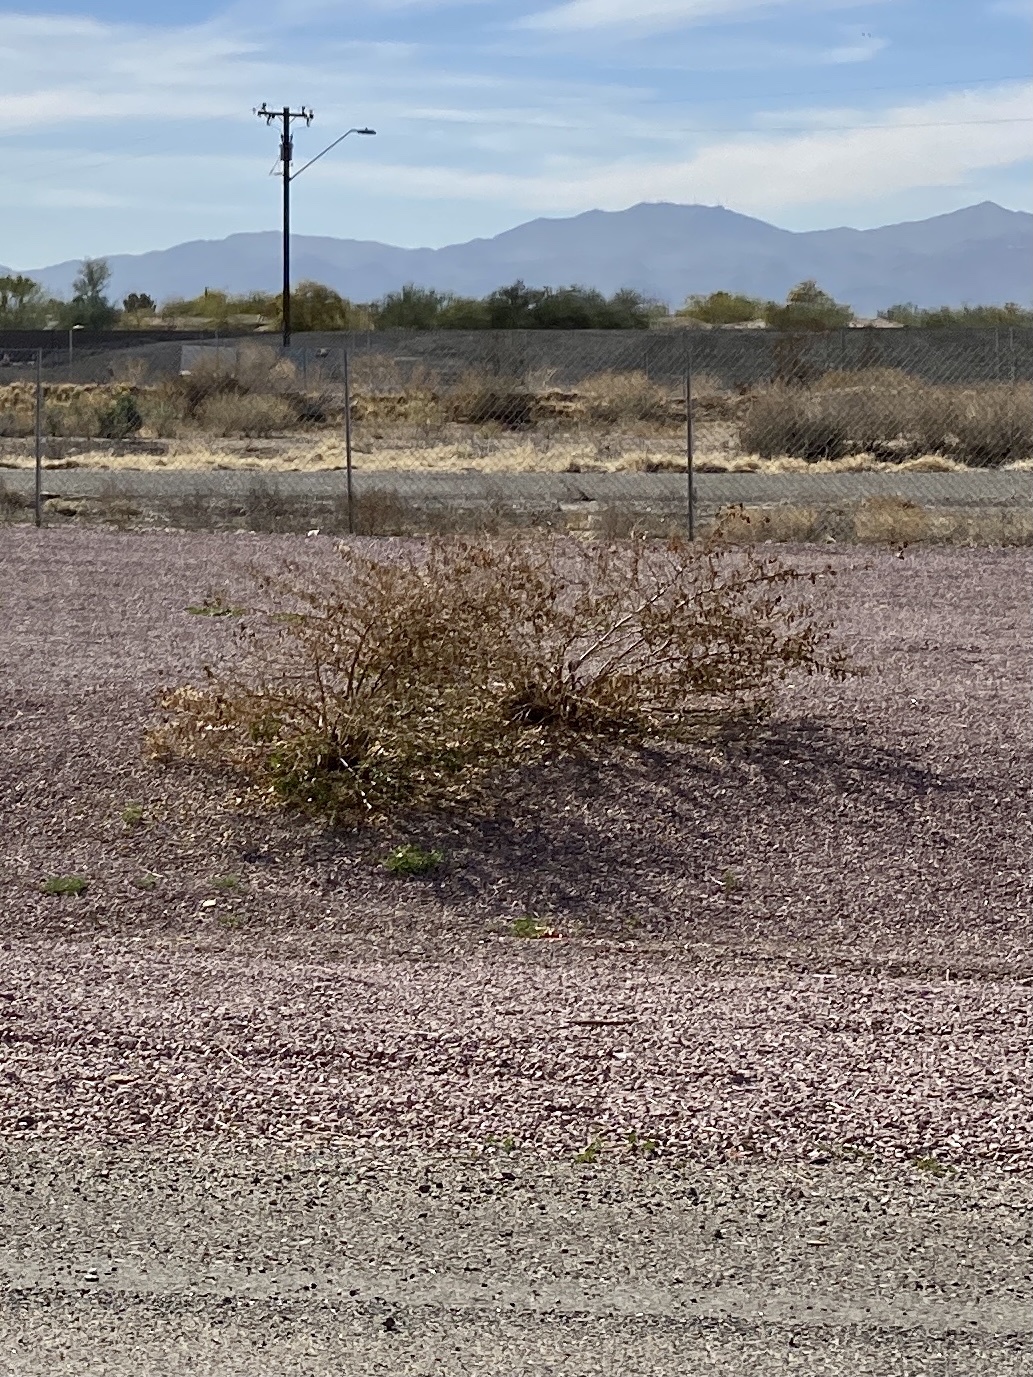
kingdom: Plantae
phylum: Tracheophyta
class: Magnoliopsida
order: Zygophyllales
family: Zygophyllaceae
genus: Larrea
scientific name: Larrea tridentata
